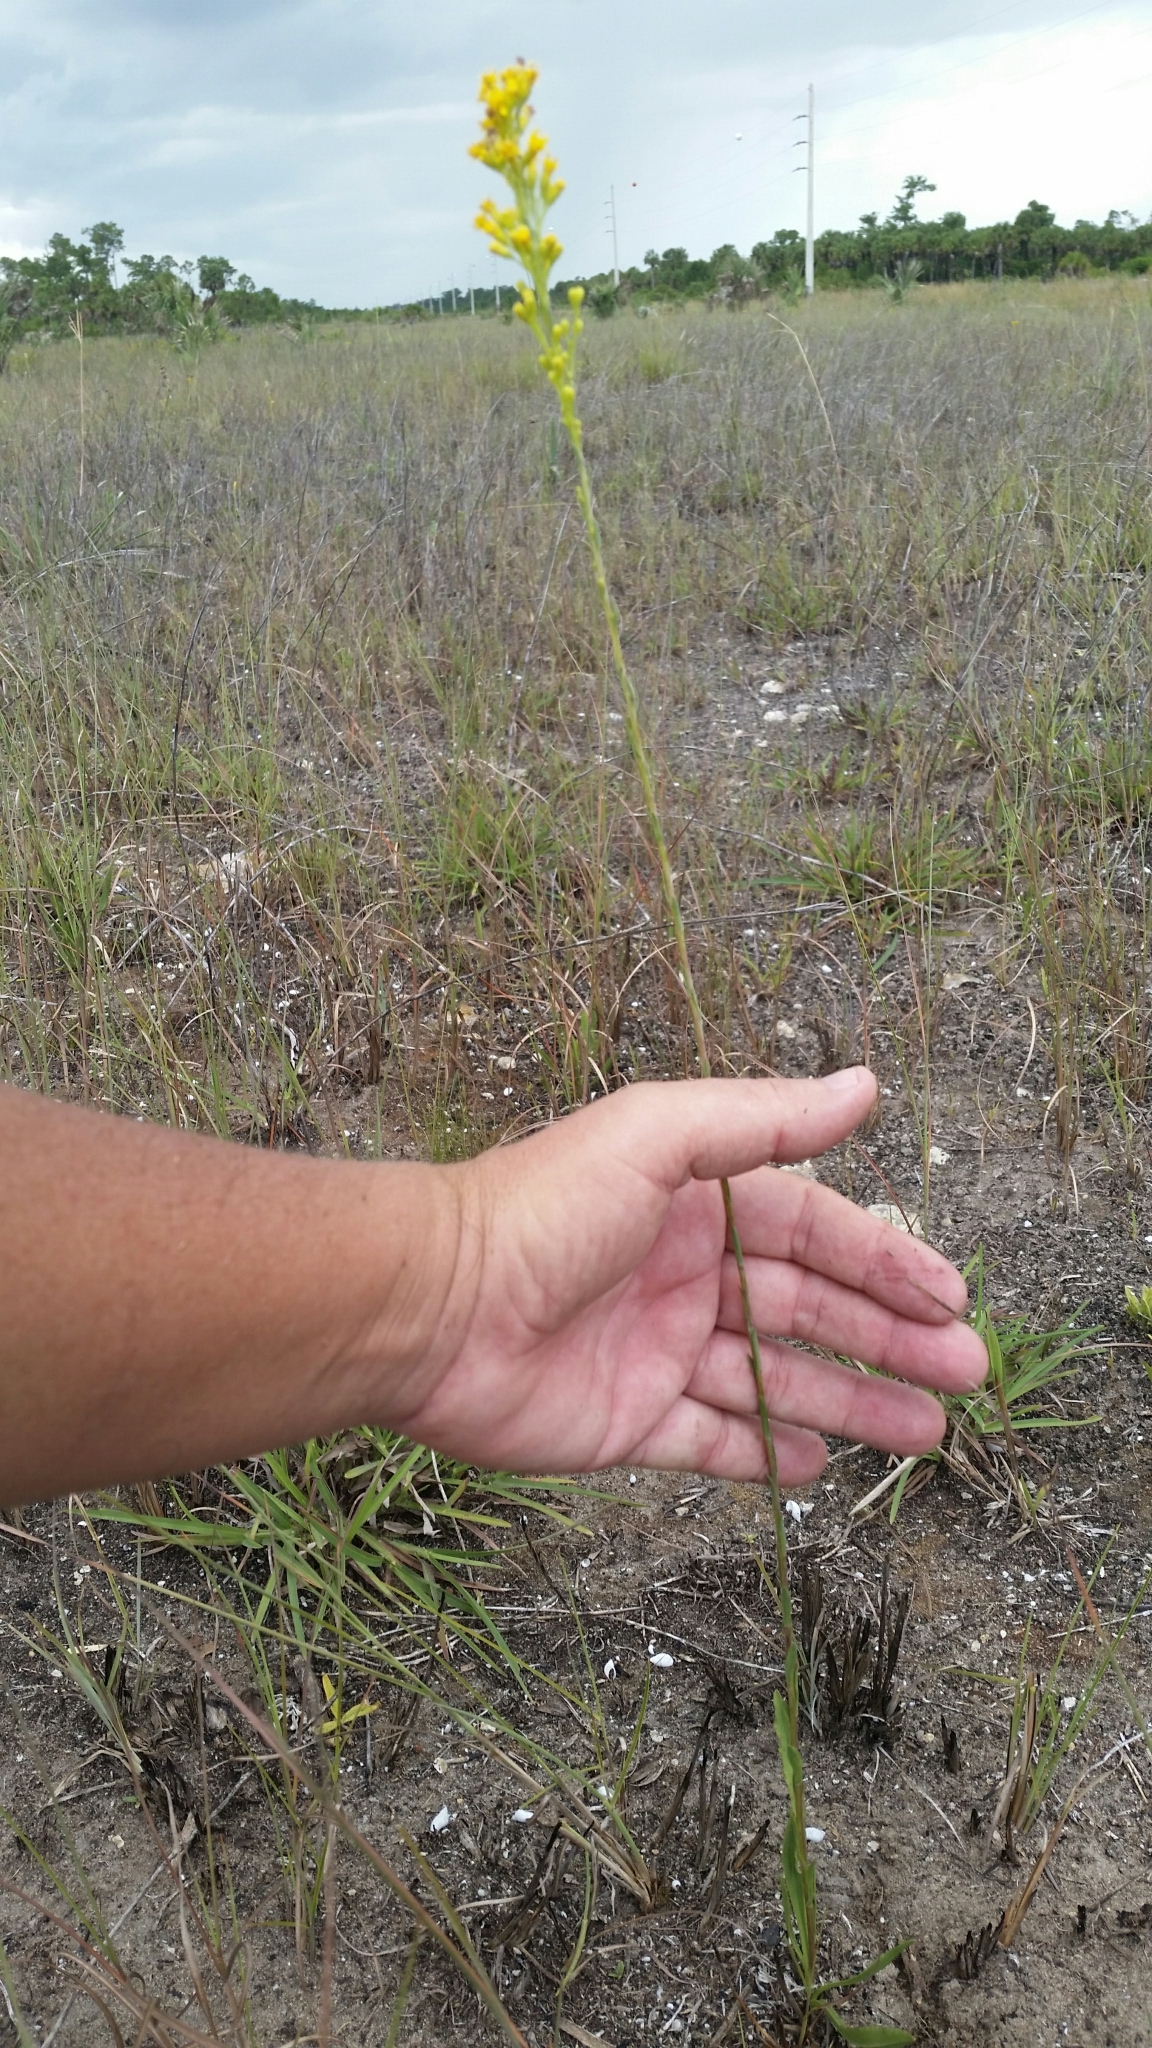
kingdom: Plantae
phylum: Tracheophyta
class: Magnoliopsida
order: Asterales
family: Asteraceae
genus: Solidago
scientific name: Solidago chrysopsis
